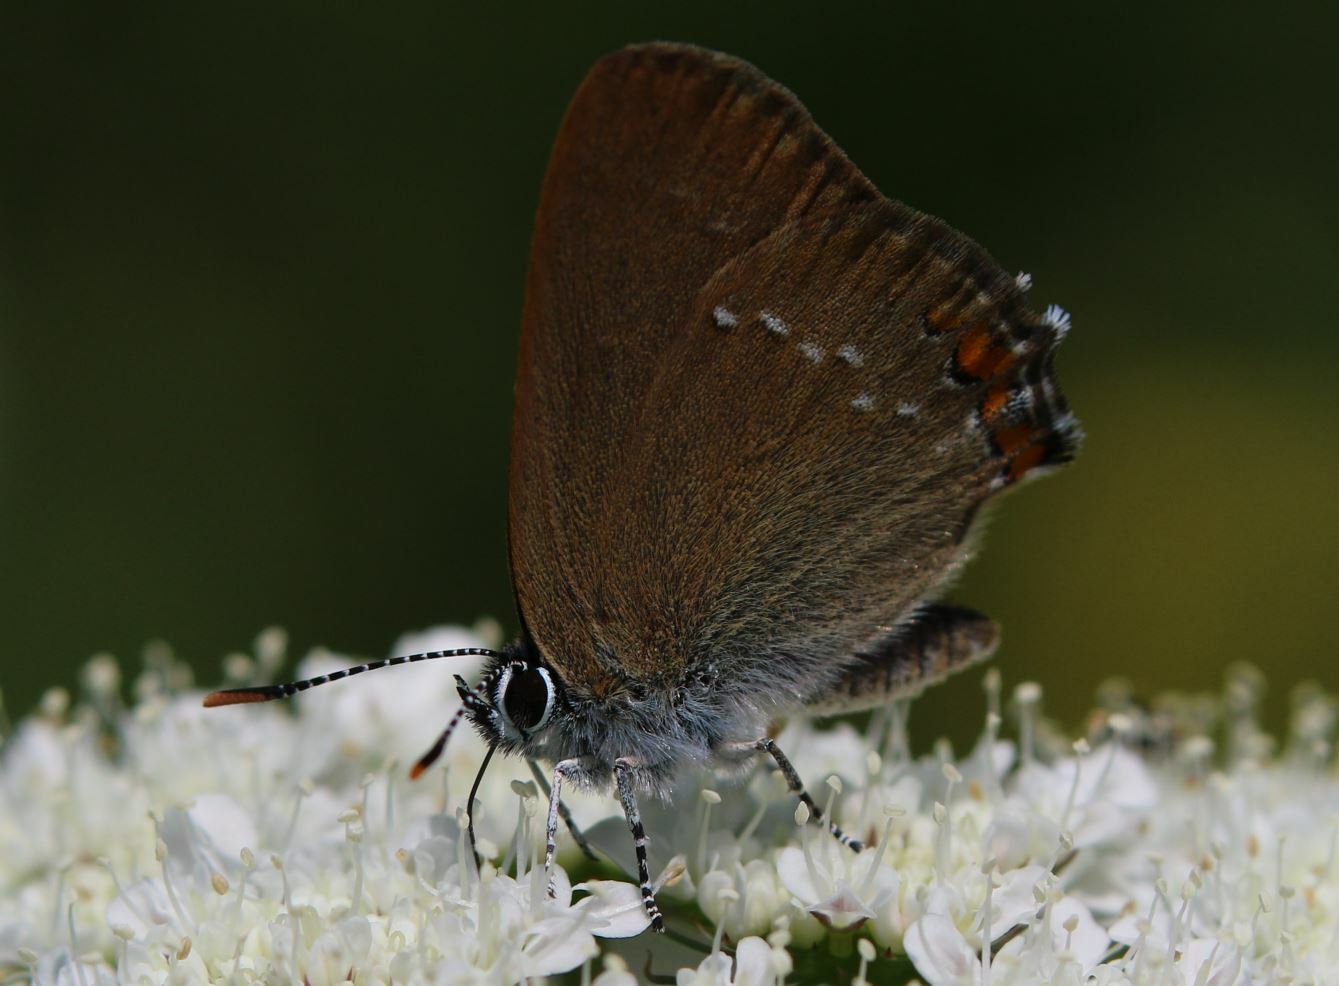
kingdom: Animalia
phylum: Arthropoda
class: Insecta
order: Lepidoptera
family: Lycaenidae
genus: Strymon
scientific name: Strymon acaciae
